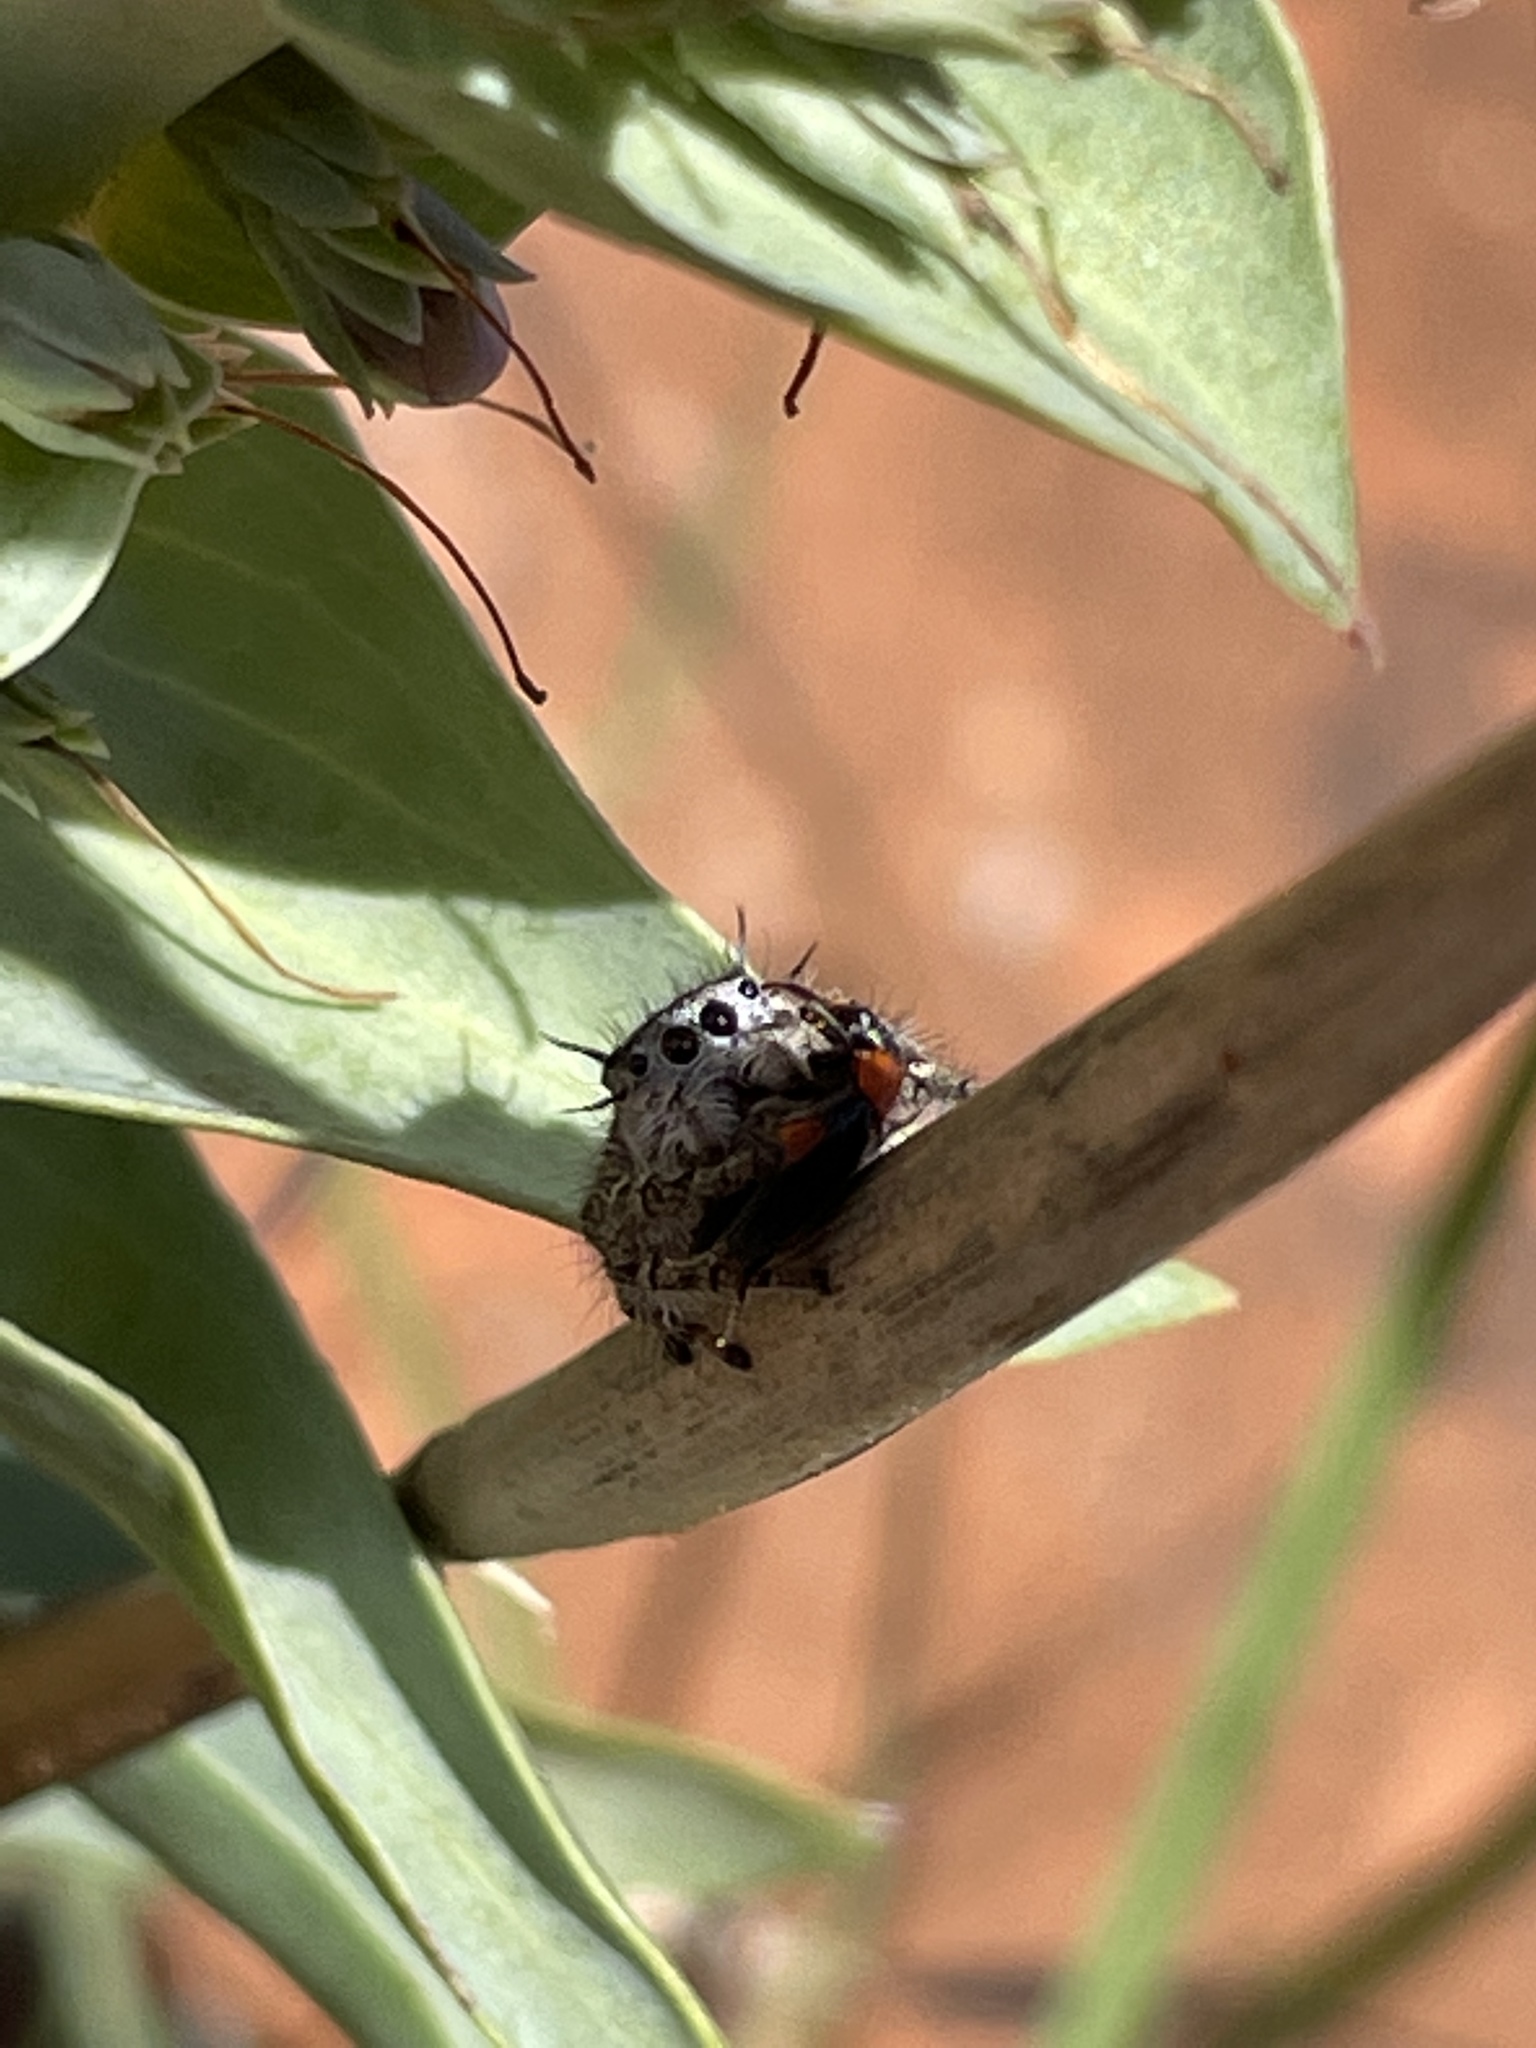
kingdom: Animalia
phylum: Arthropoda
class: Arachnida
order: Araneae
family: Salticidae
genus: Phidippus
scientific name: Phidippus mystaceus
